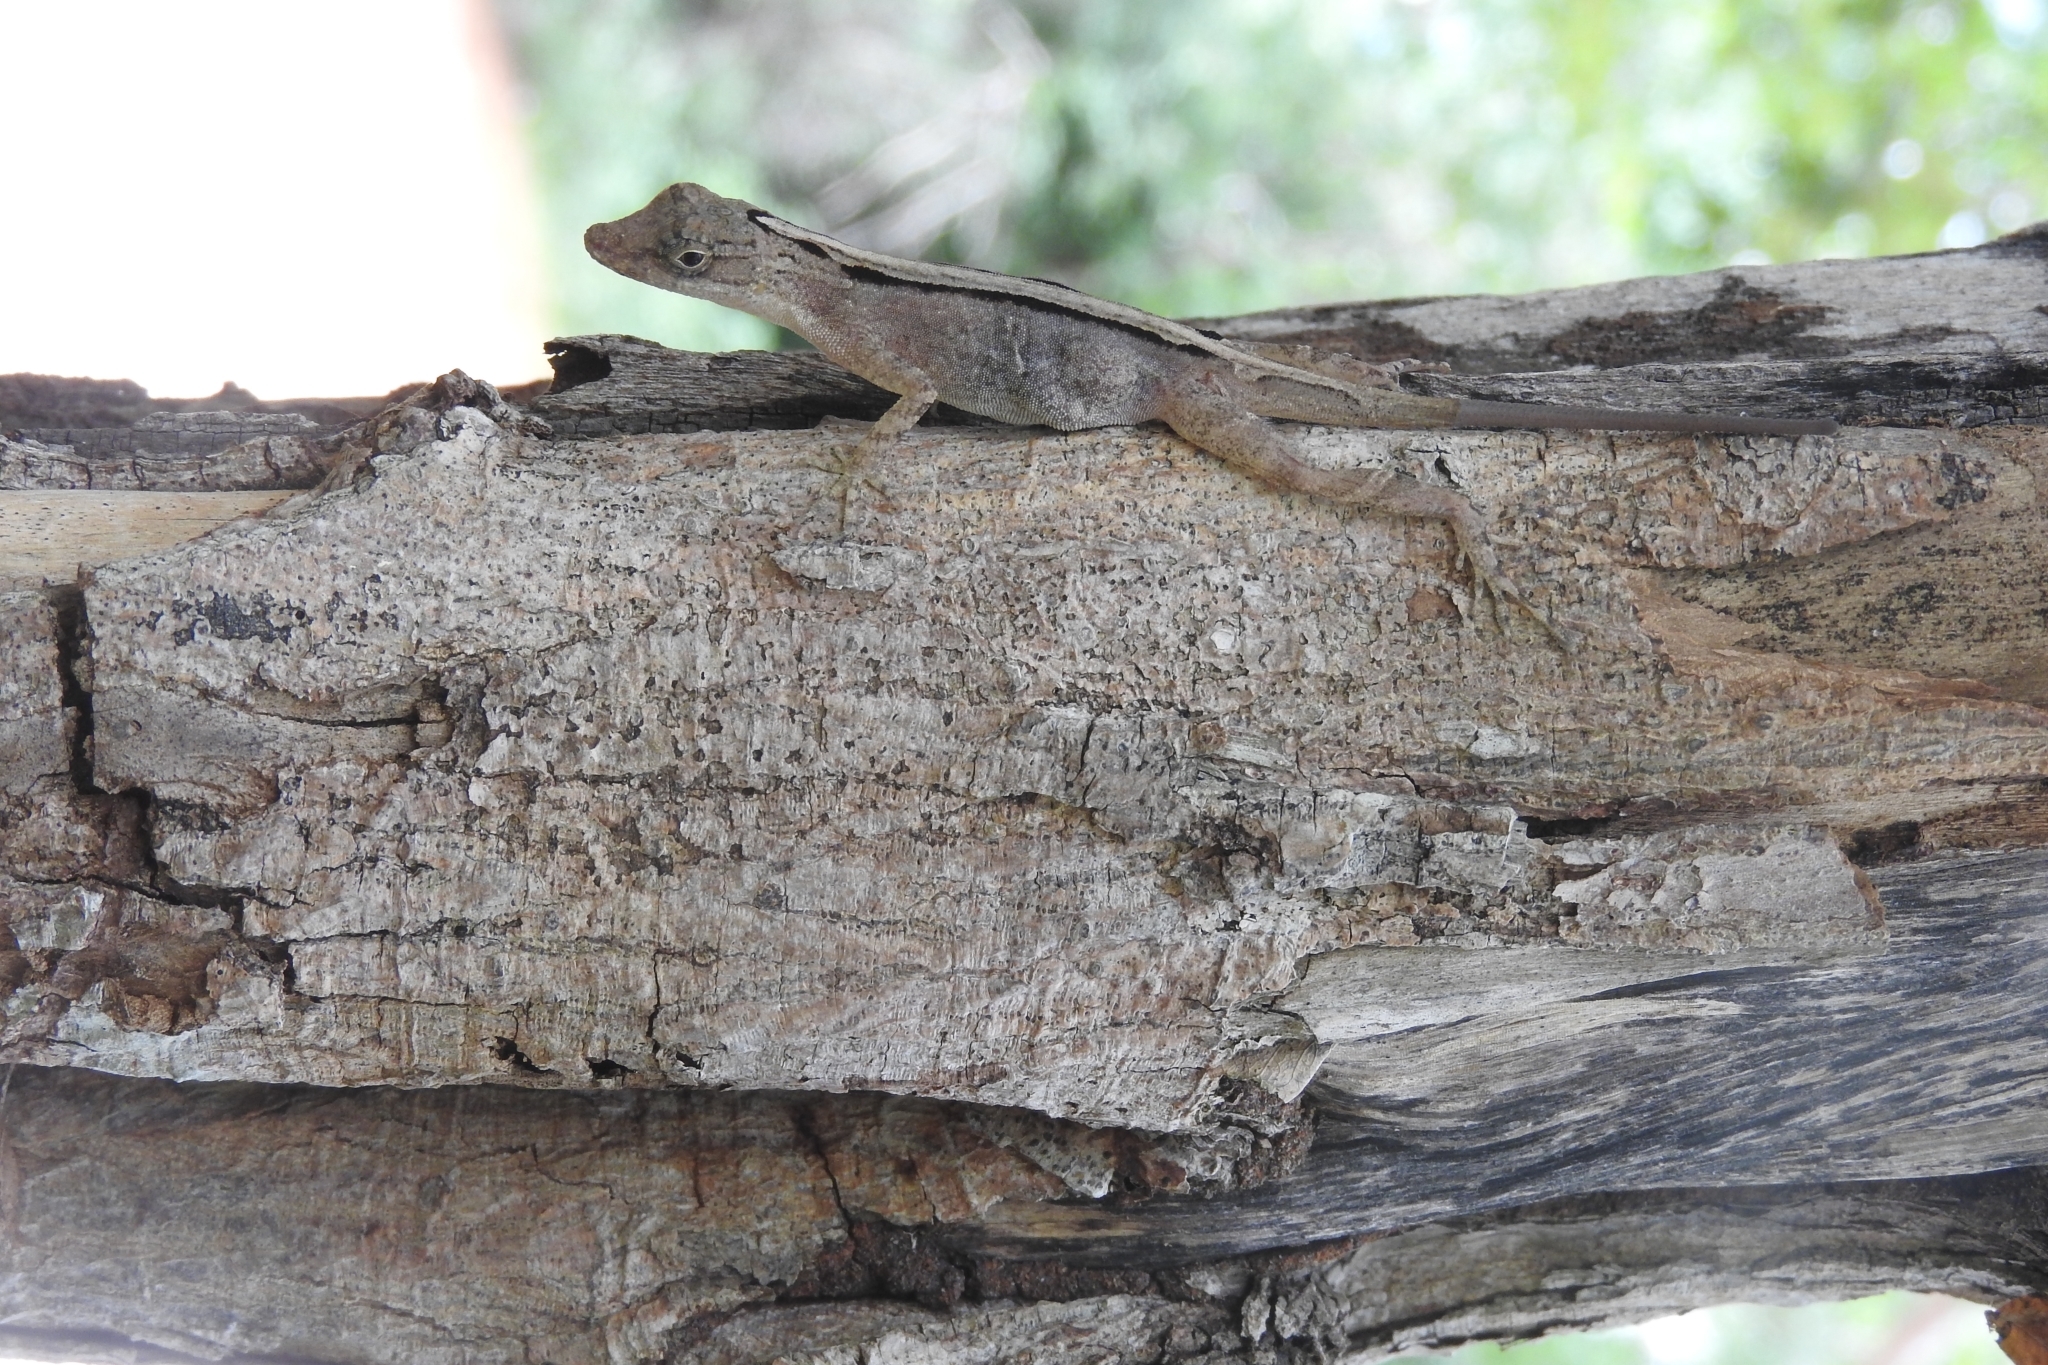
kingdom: Animalia
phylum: Chordata
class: Squamata
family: Dactyloidae
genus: Anolis
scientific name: Anolis rodriguezii
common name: Middle american smooth anole
